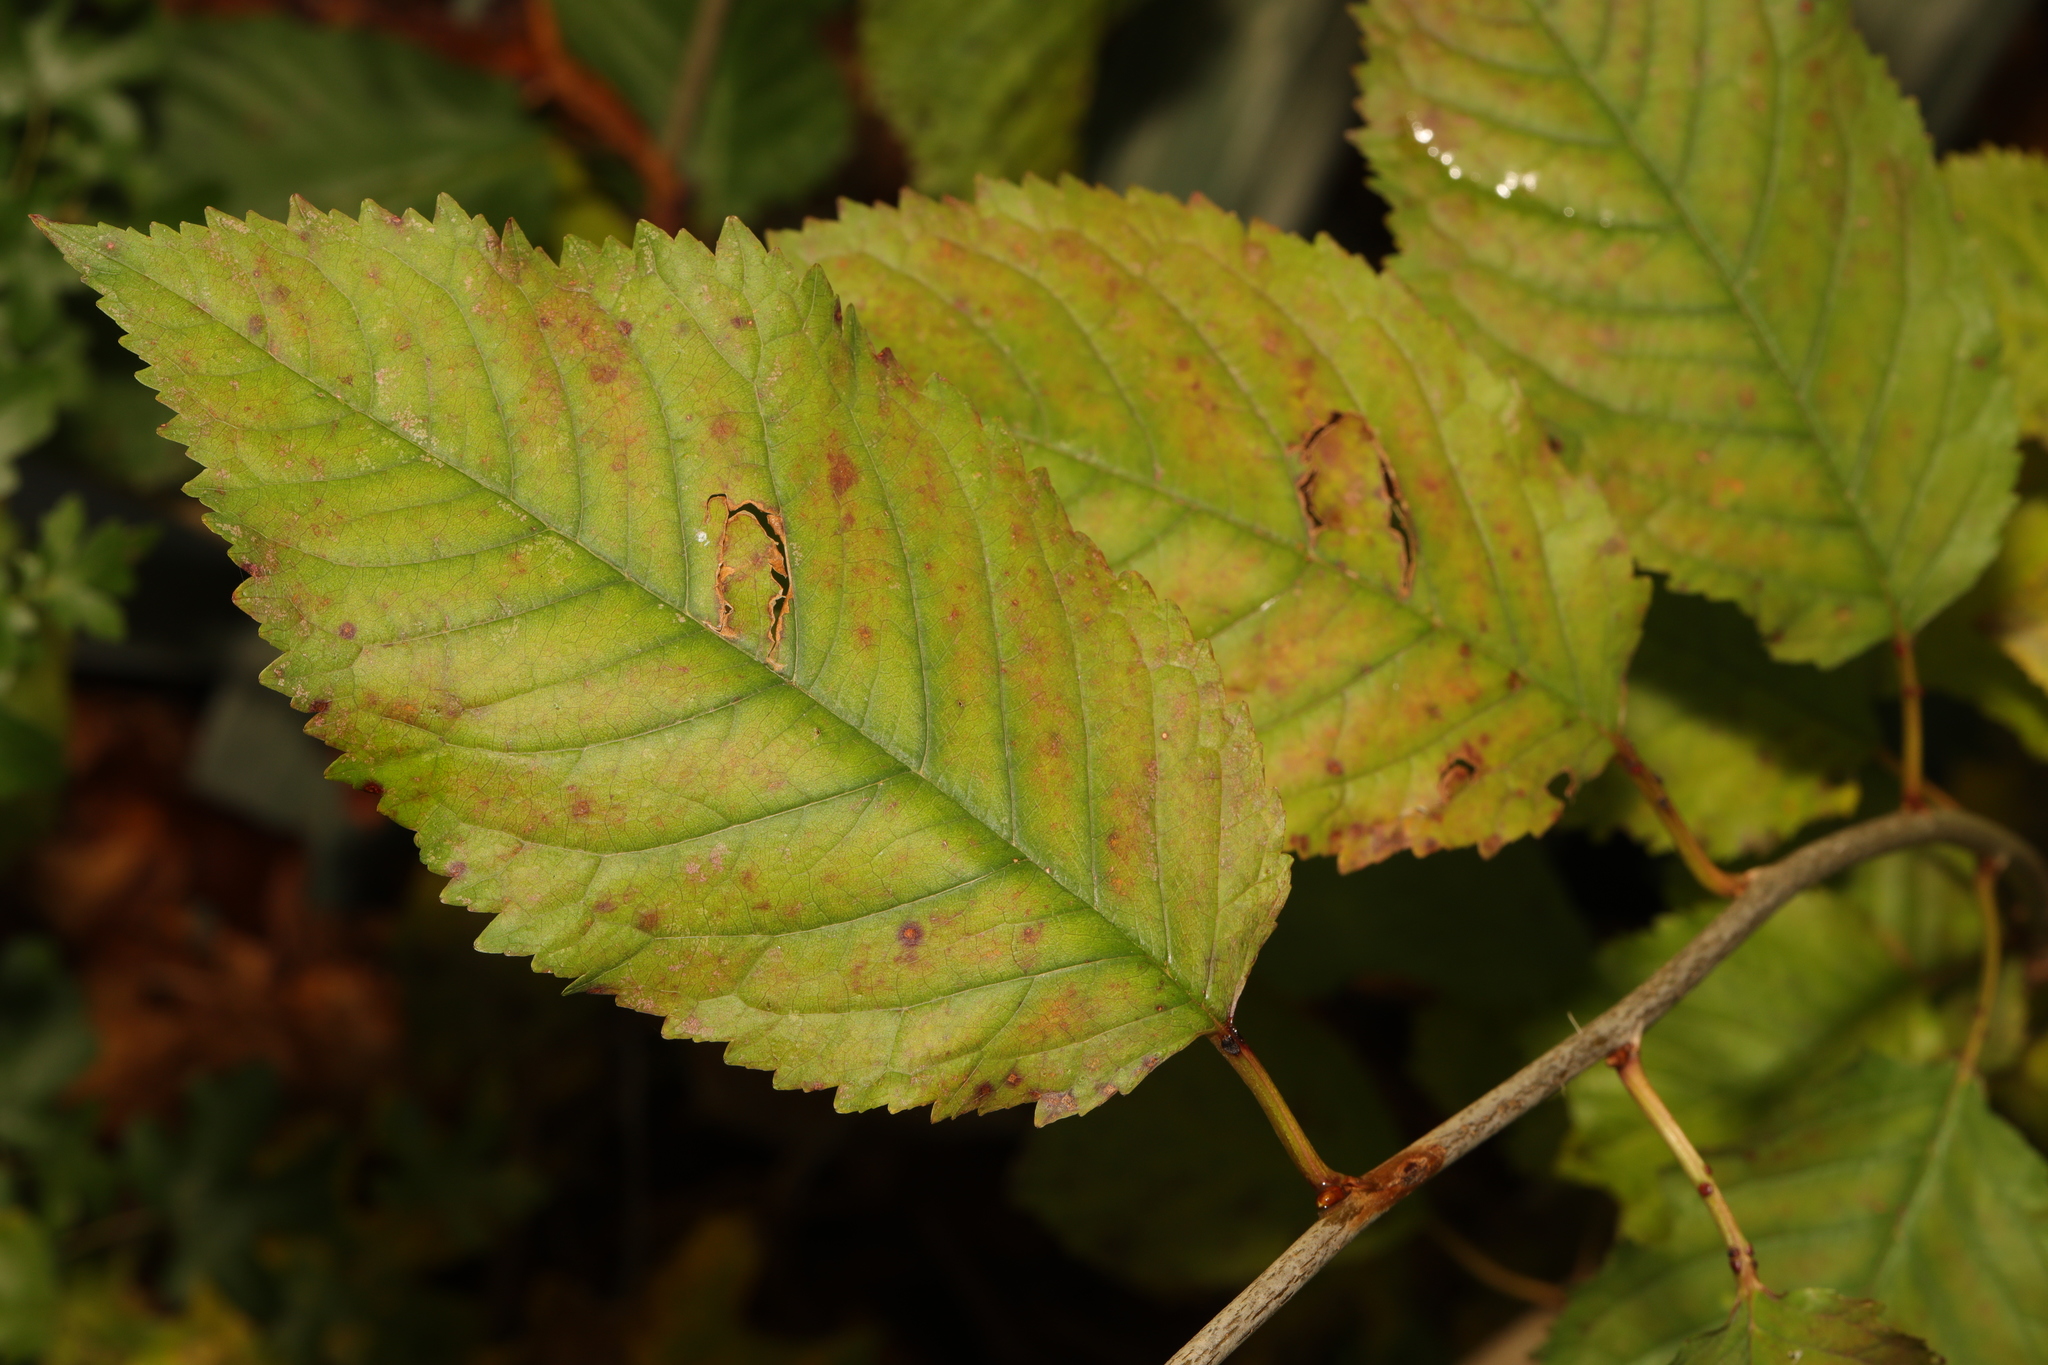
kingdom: Plantae
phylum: Tracheophyta
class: Magnoliopsida
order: Rosales
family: Rosaceae
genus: Prunus
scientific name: Prunus avium
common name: Sweet cherry
